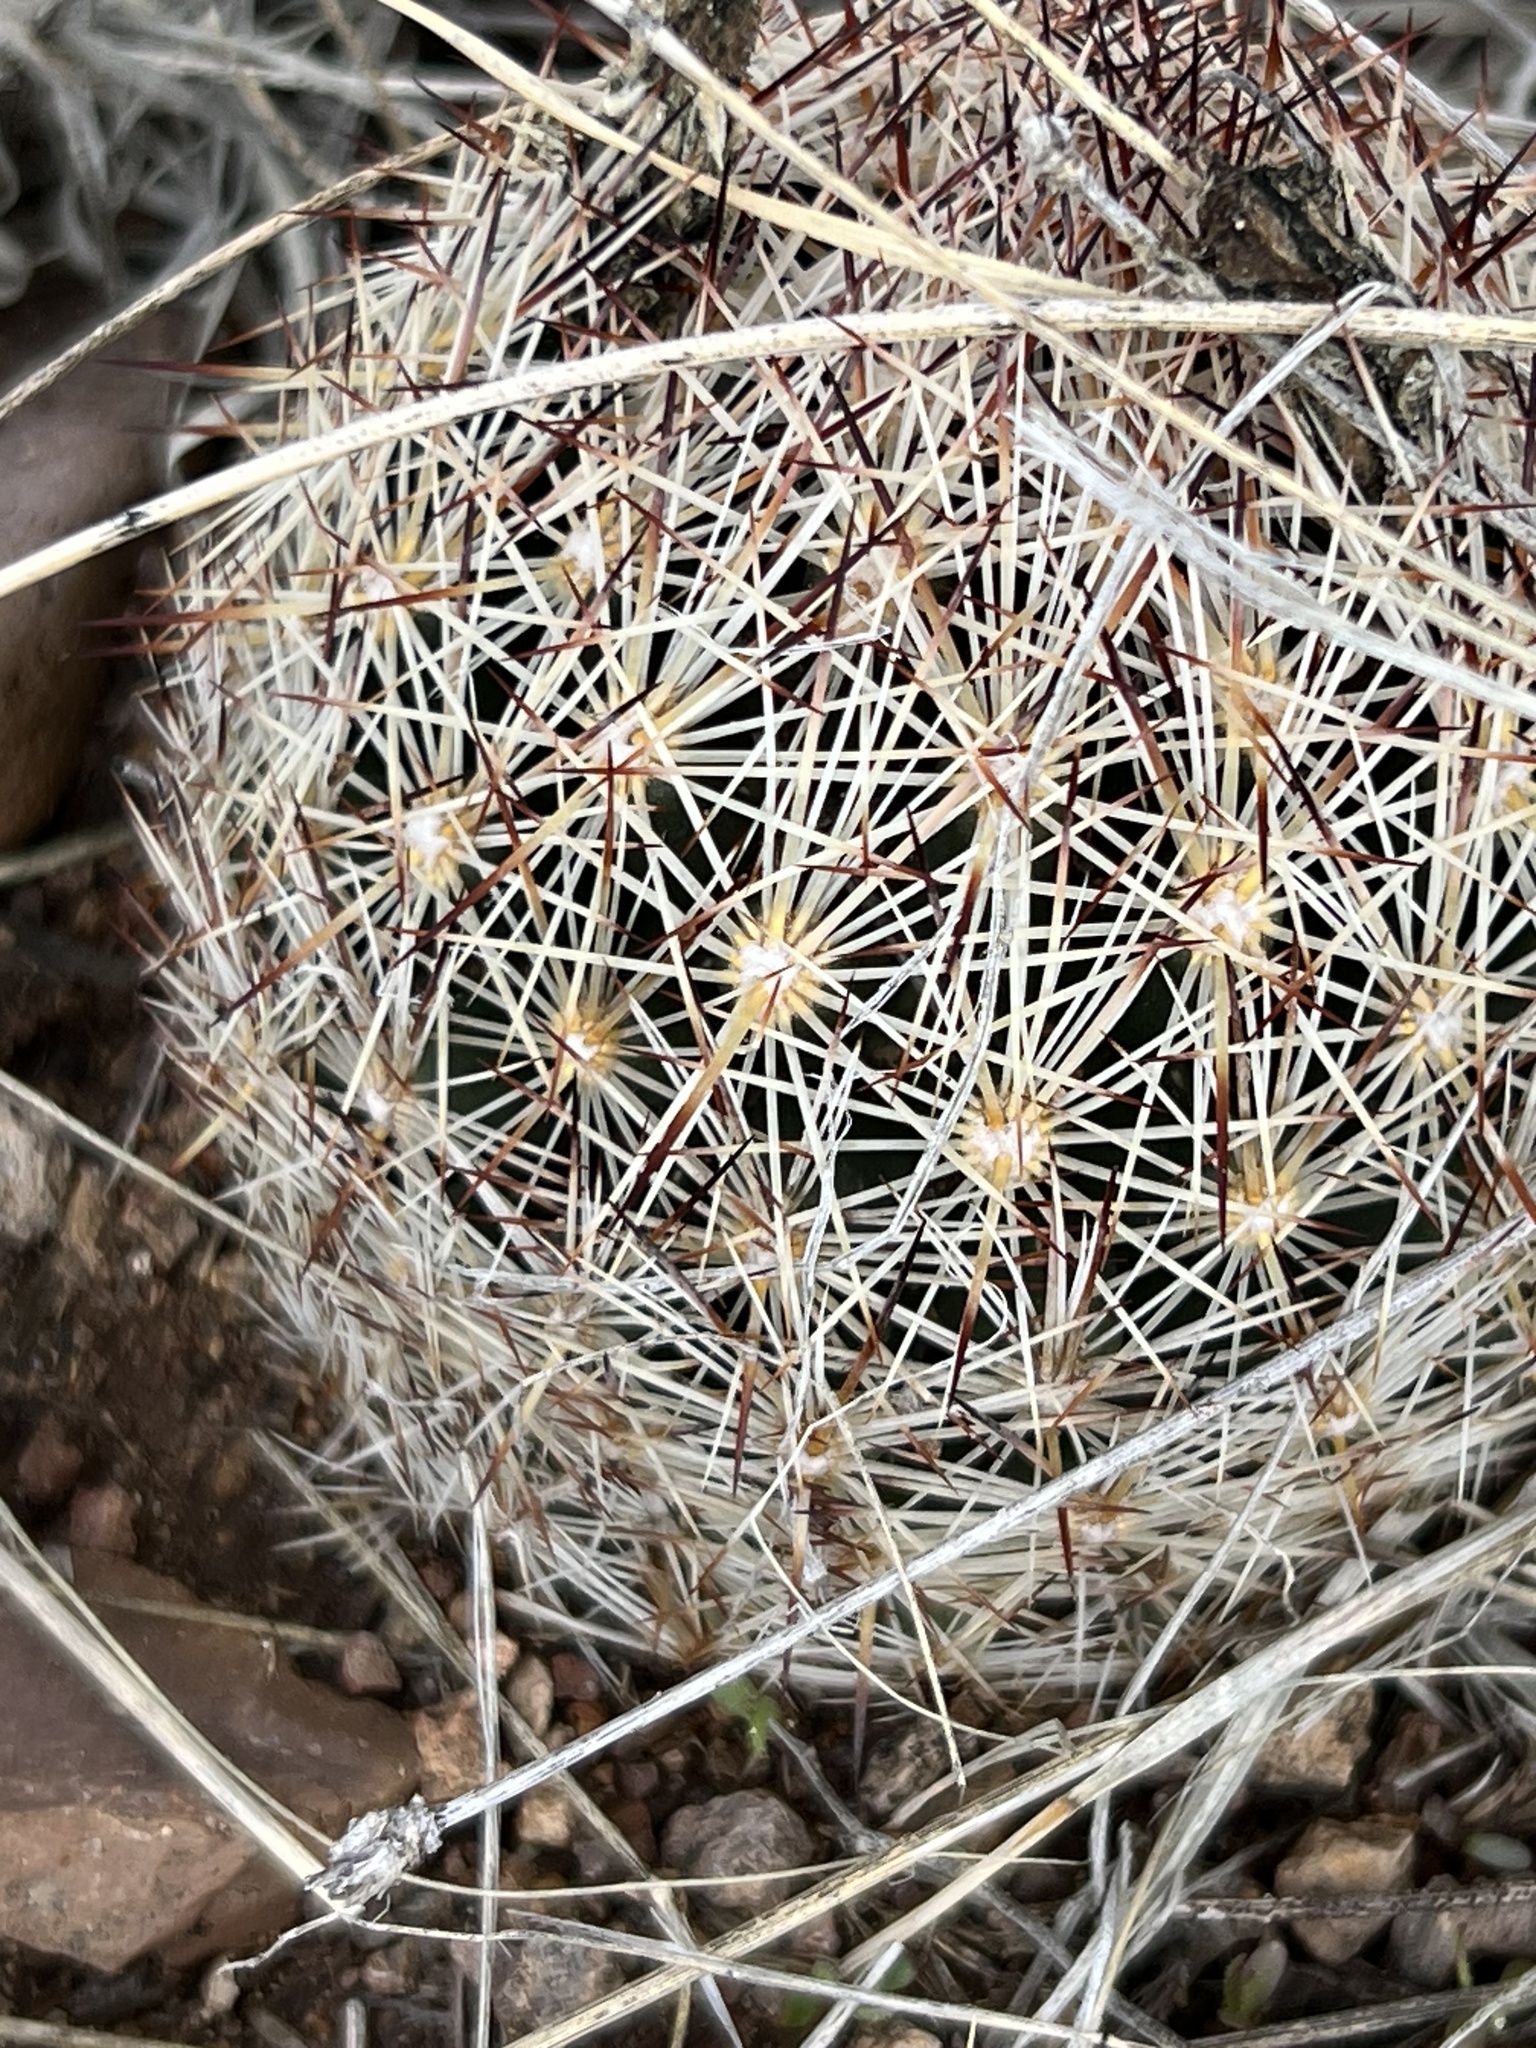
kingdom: Plantae
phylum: Tracheophyta
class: Magnoliopsida
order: Caryophyllales
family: Cactaceae
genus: Pelecyphora
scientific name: Pelecyphora vivipara
